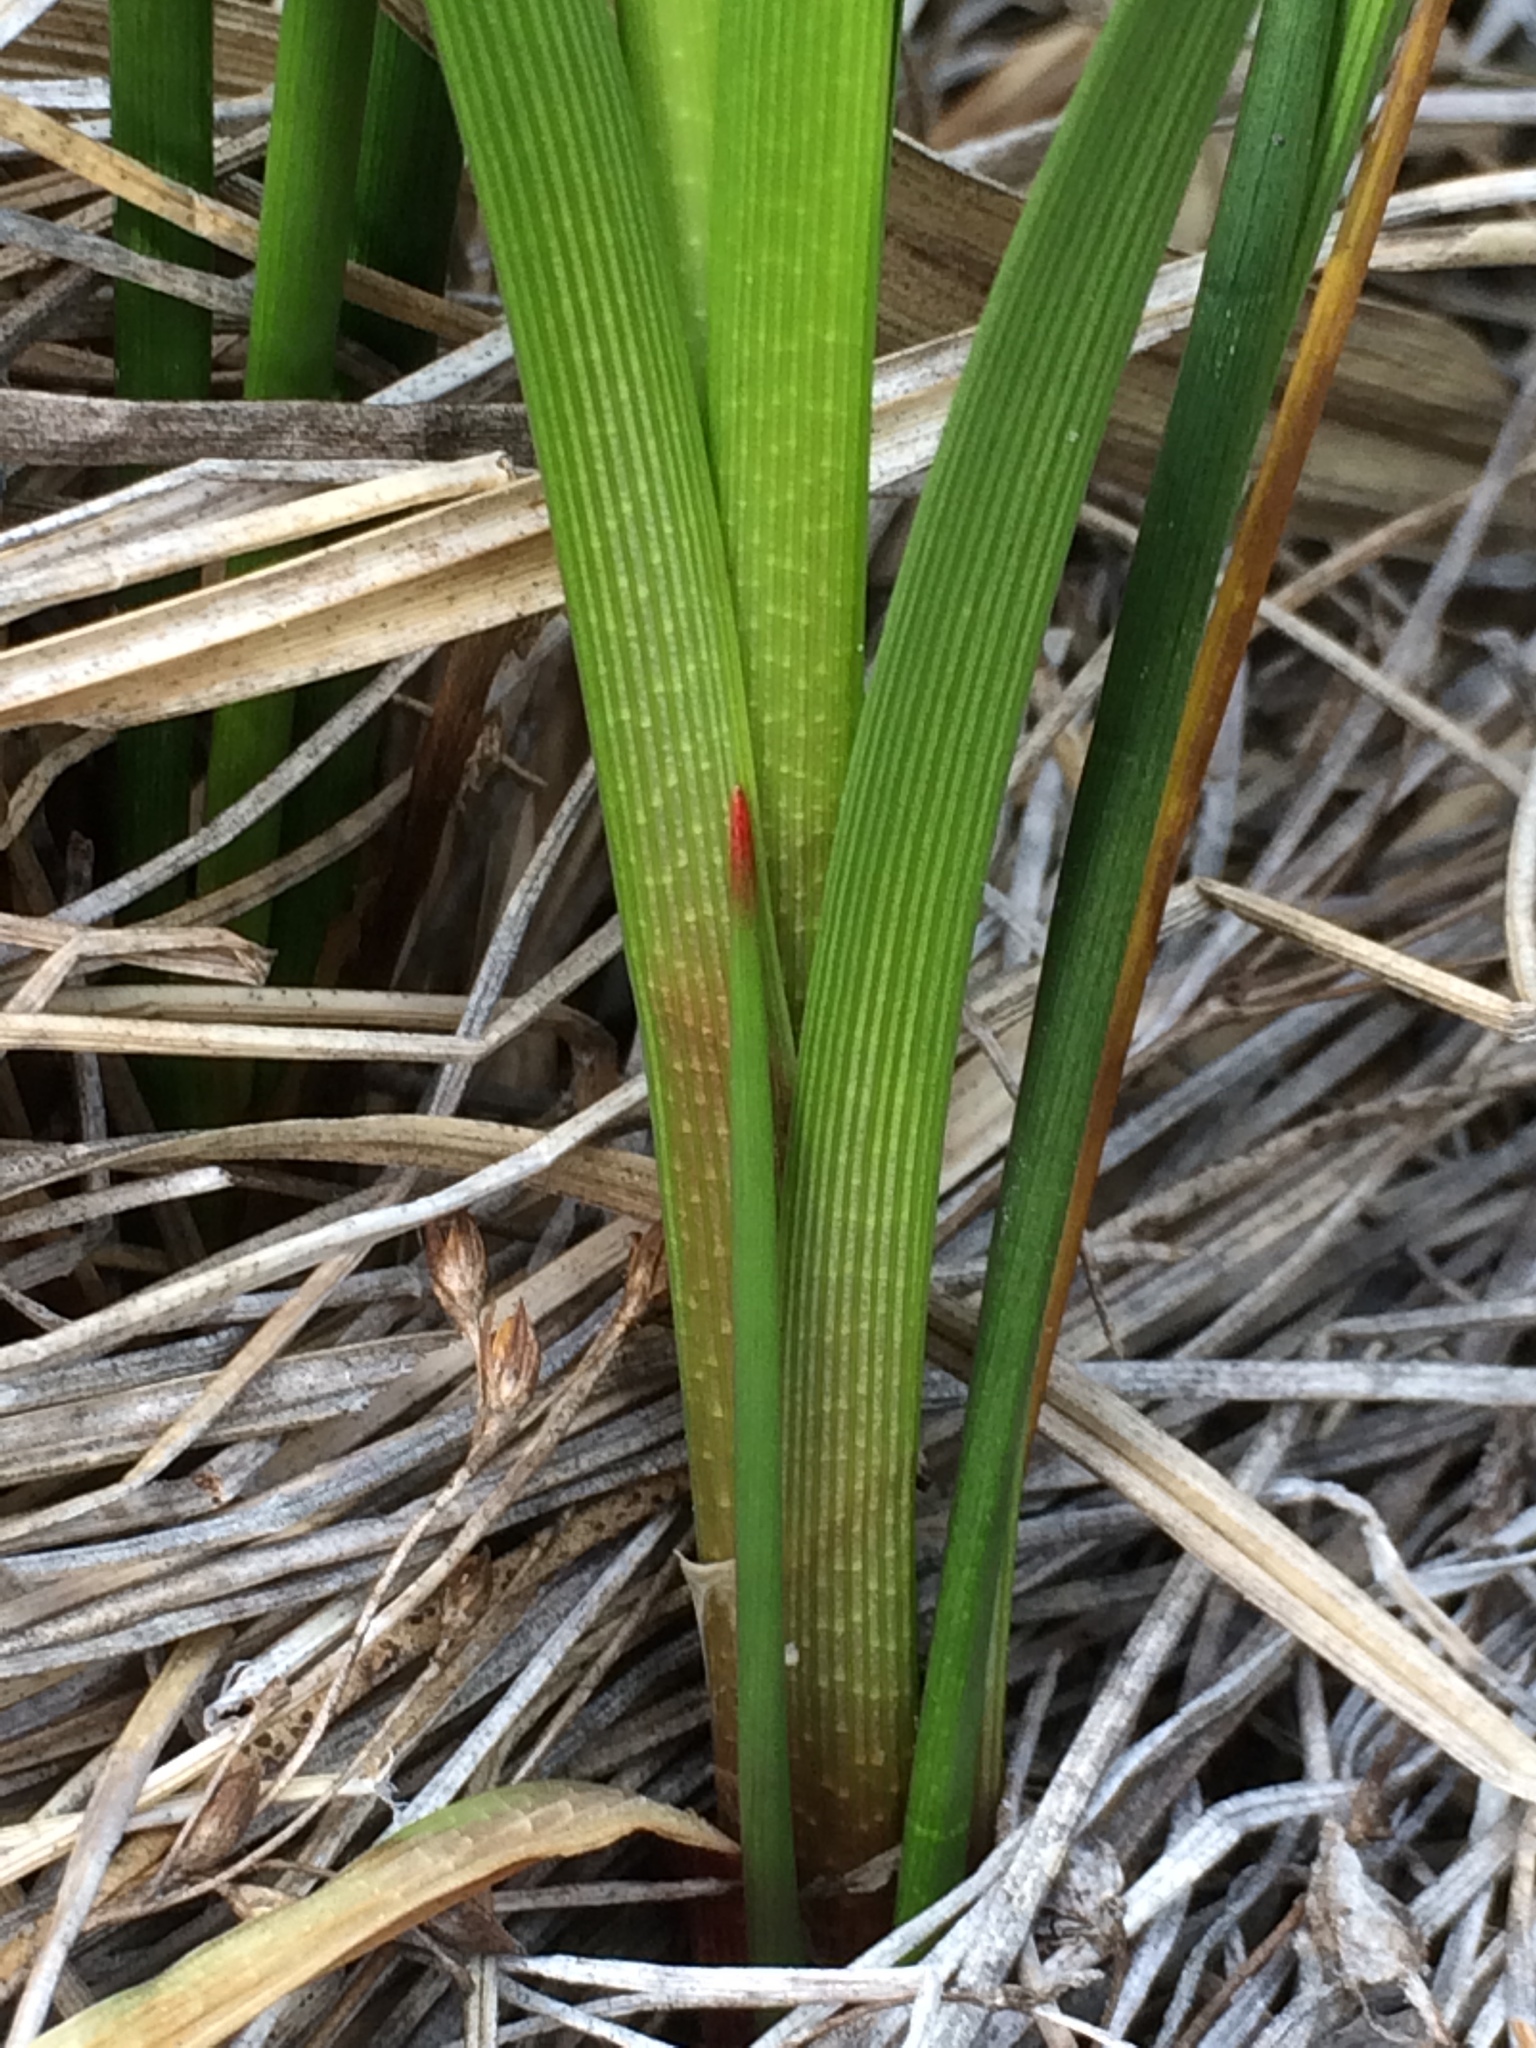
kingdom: Plantae
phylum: Tracheophyta
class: Liliopsida
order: Poales
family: Cyperaceae
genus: Carex
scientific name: Carex utriculata
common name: Beaked sedge
